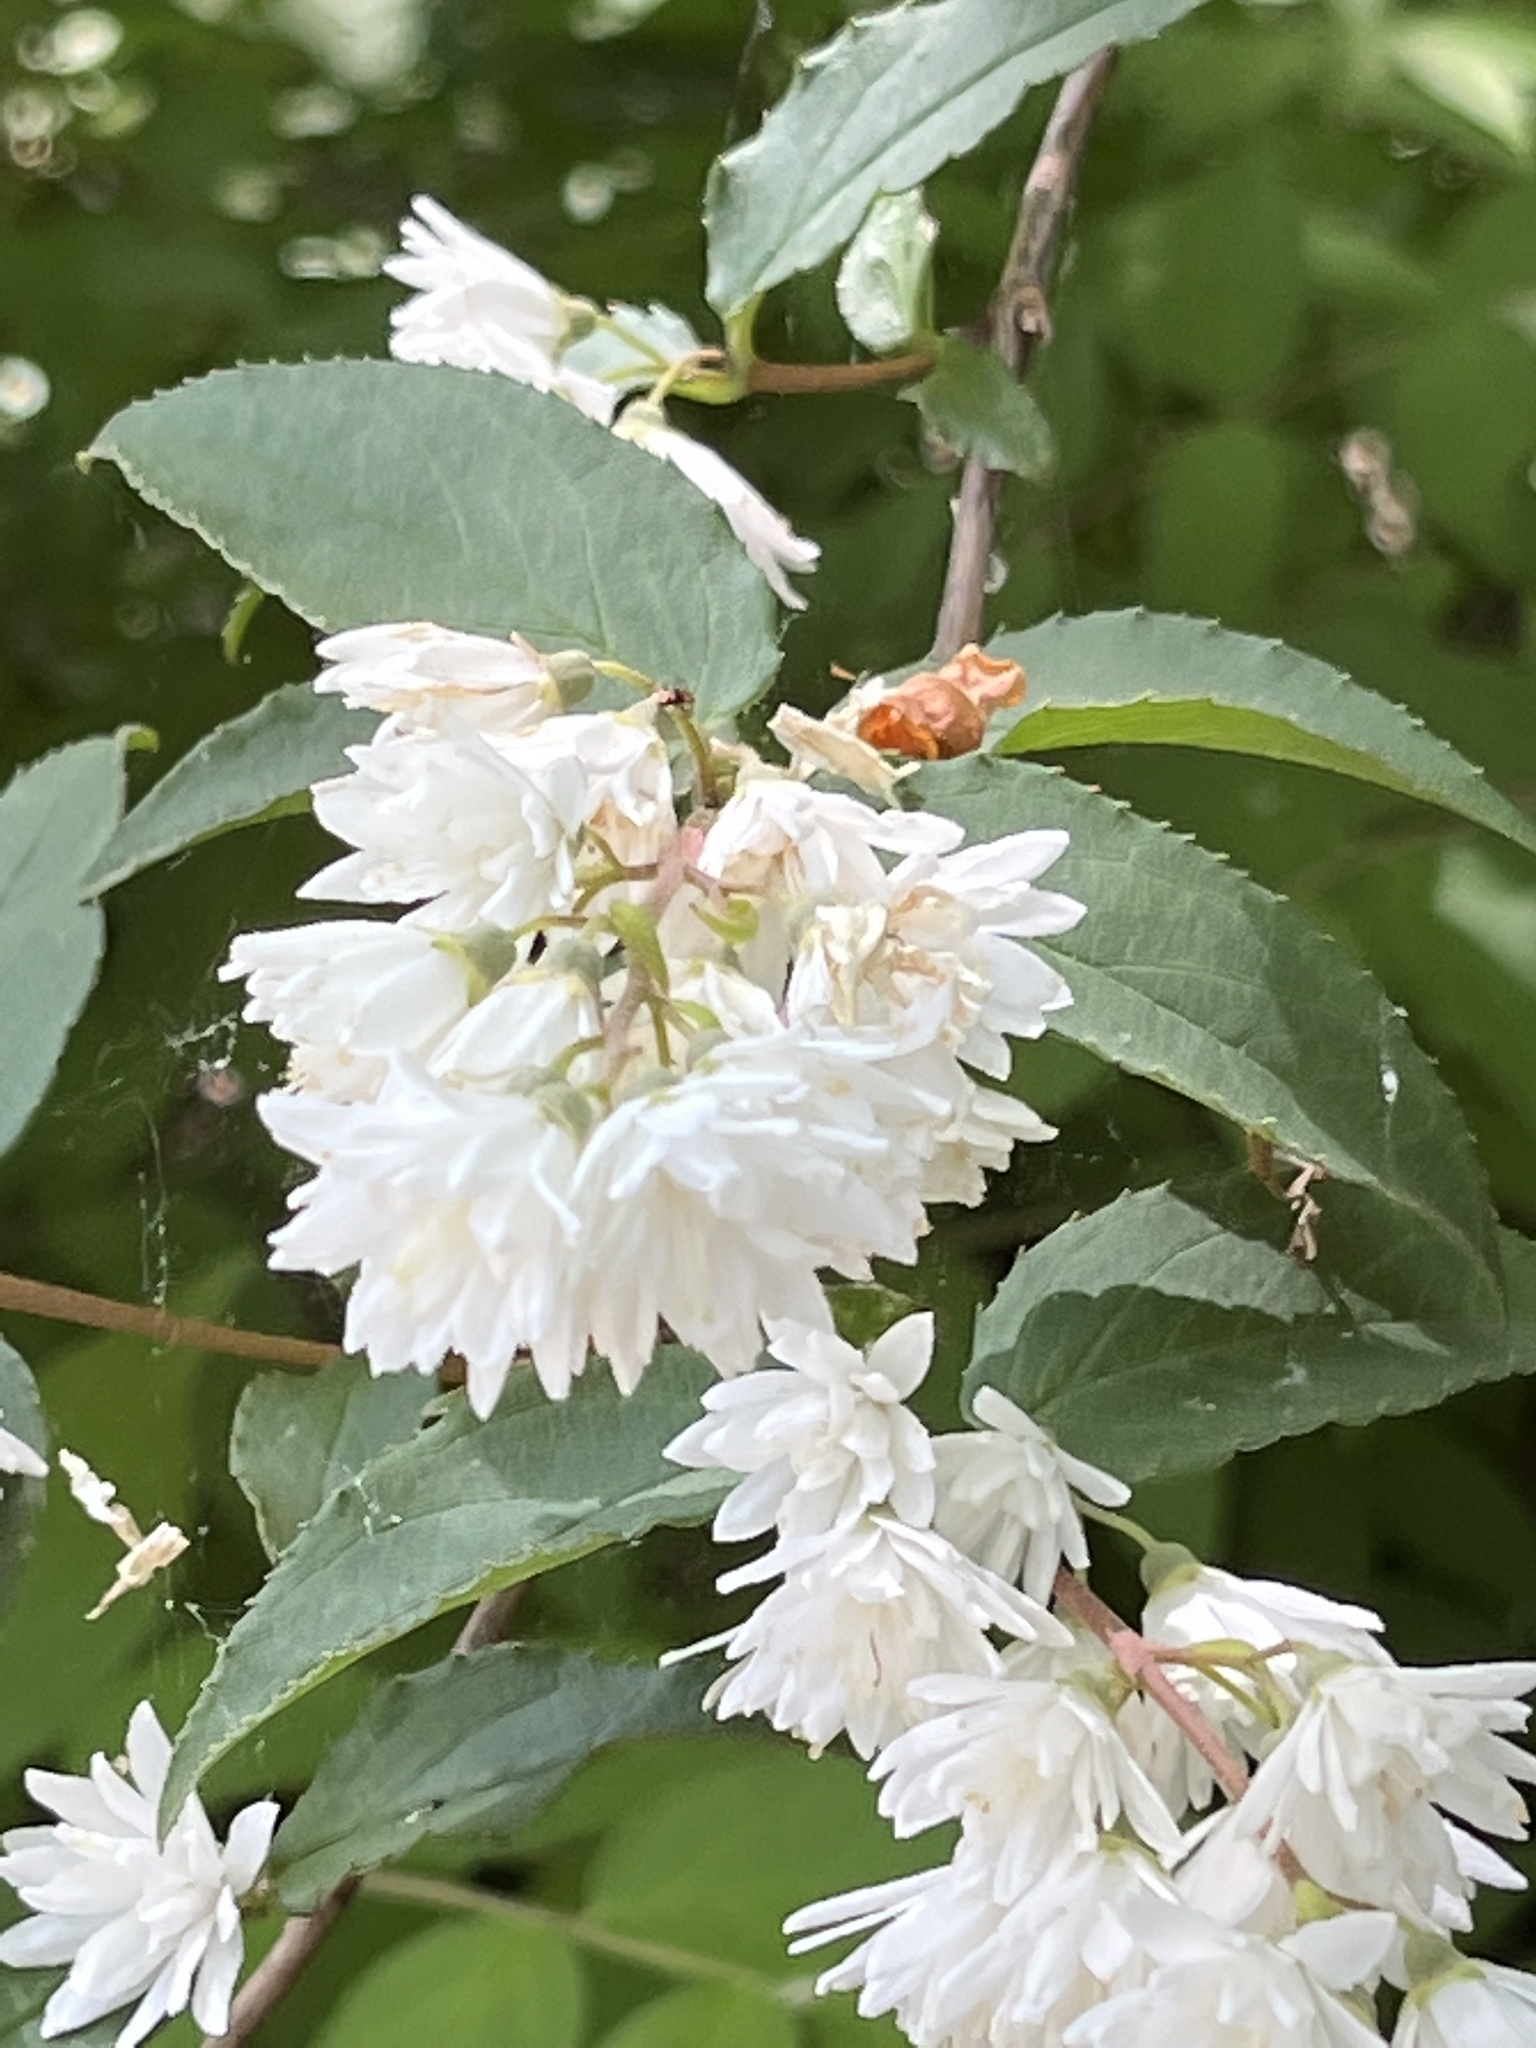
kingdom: Plantae
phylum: Tracheophyta
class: Magnoliopsida
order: Cornales
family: Hydrangeaceae
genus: Deutzia
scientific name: Deutzia scabra
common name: Deutzia
